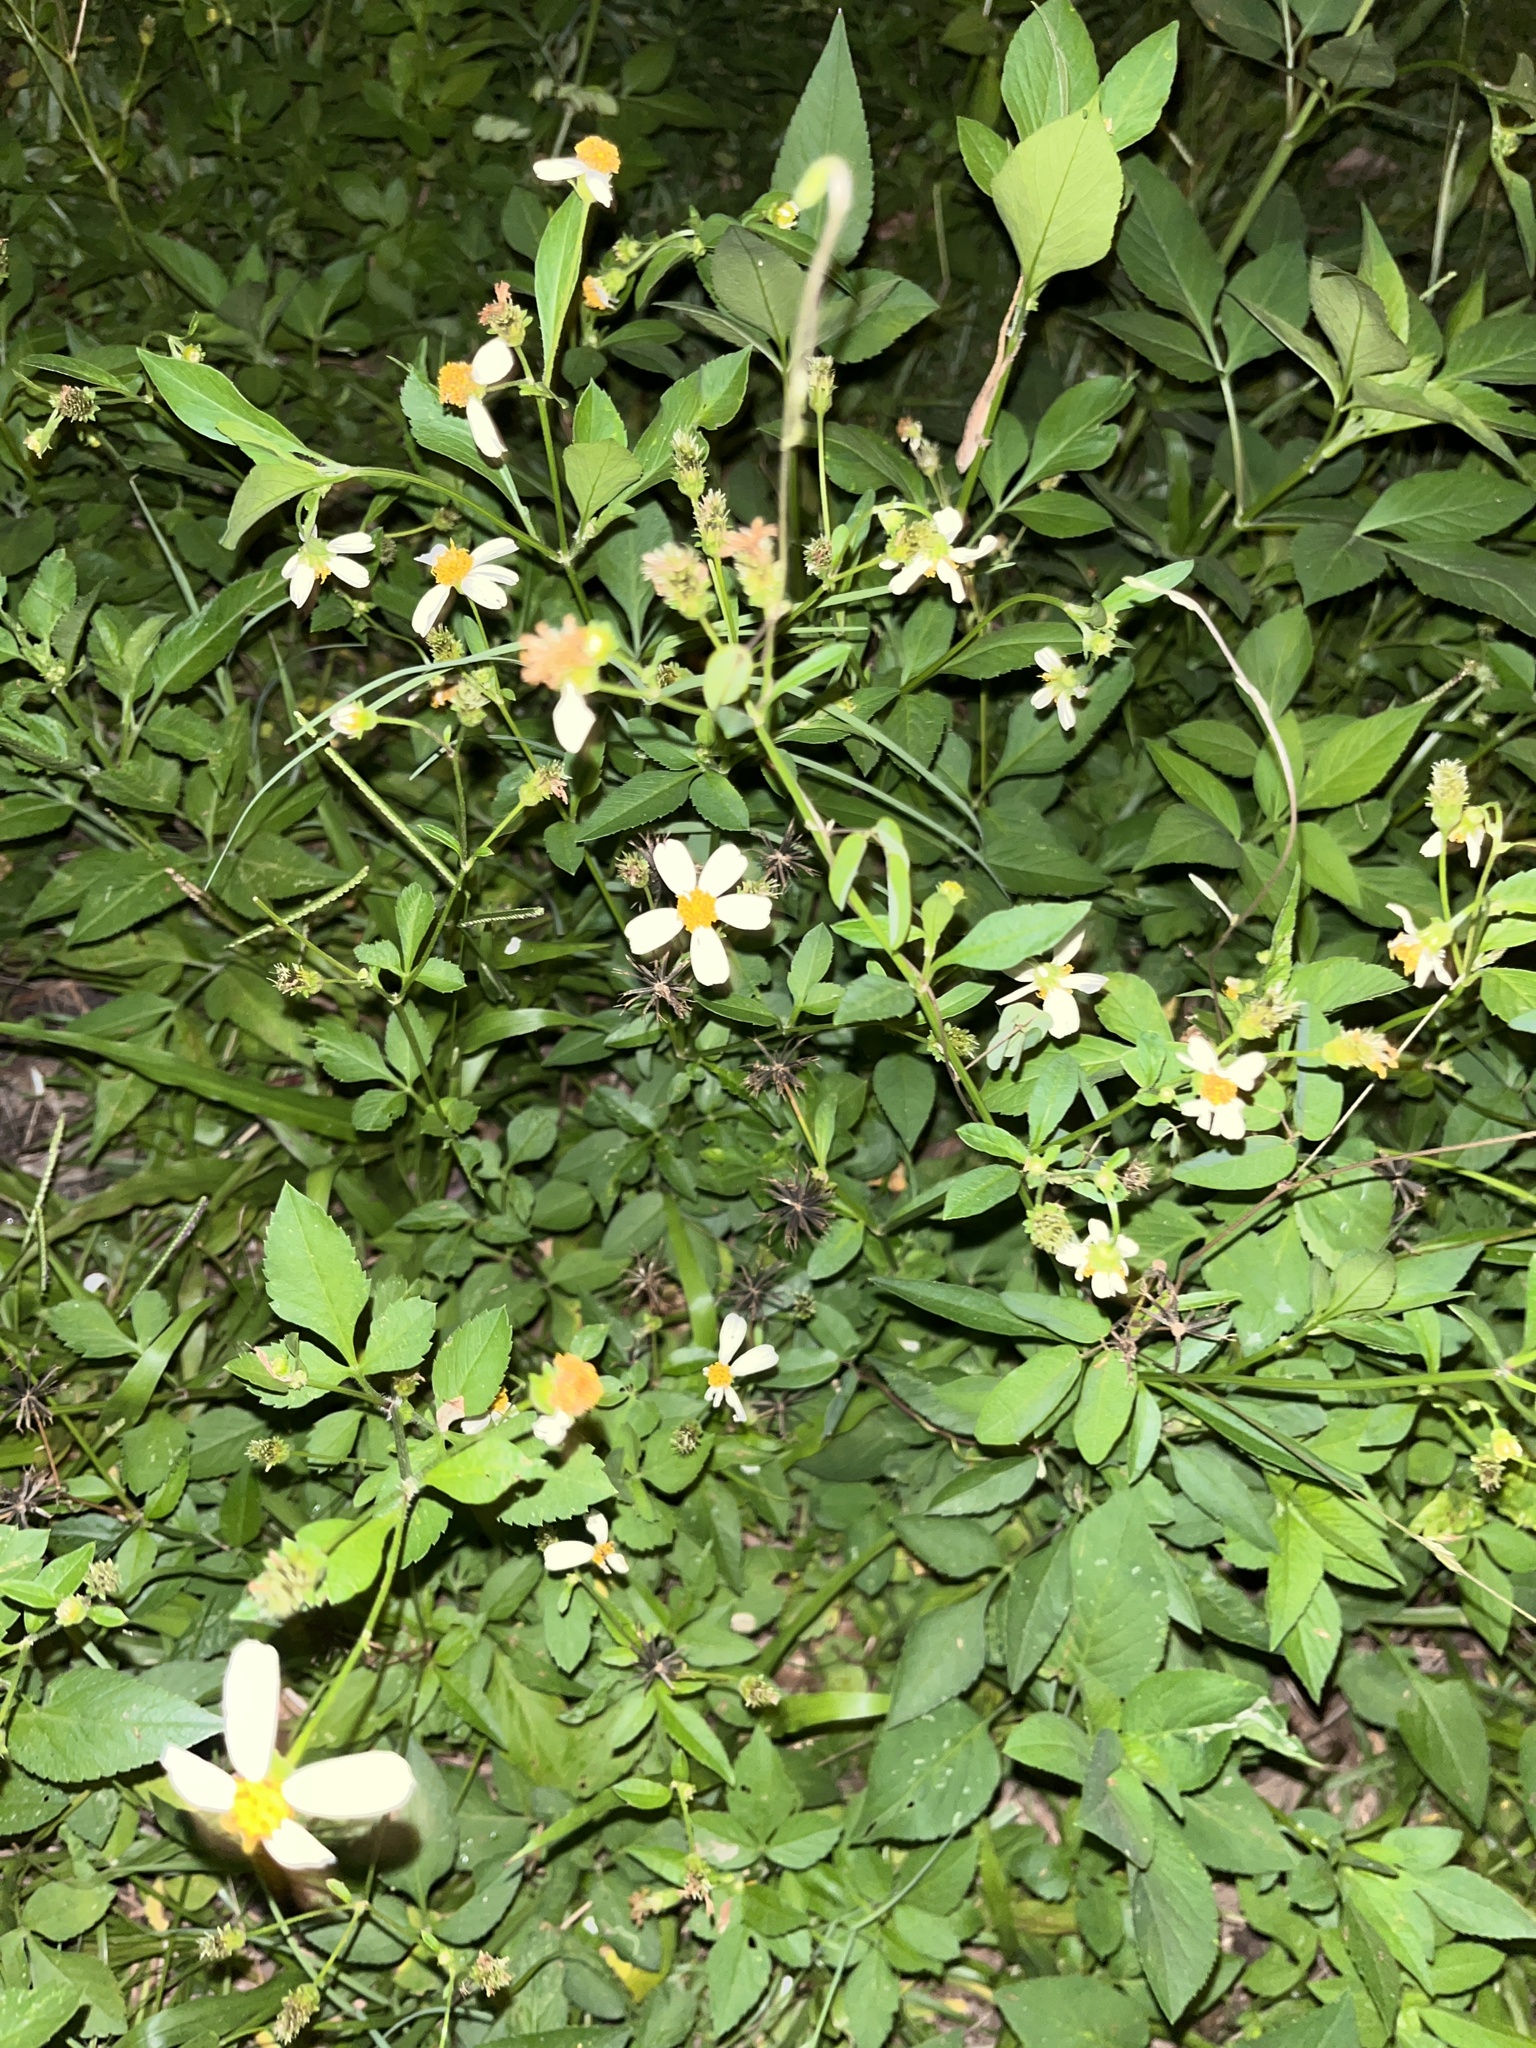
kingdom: Plantae
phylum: Tracheophyta
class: Magnoliopsida
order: Asterales
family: Asteraceae
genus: Bidens
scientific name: Bidens alba
